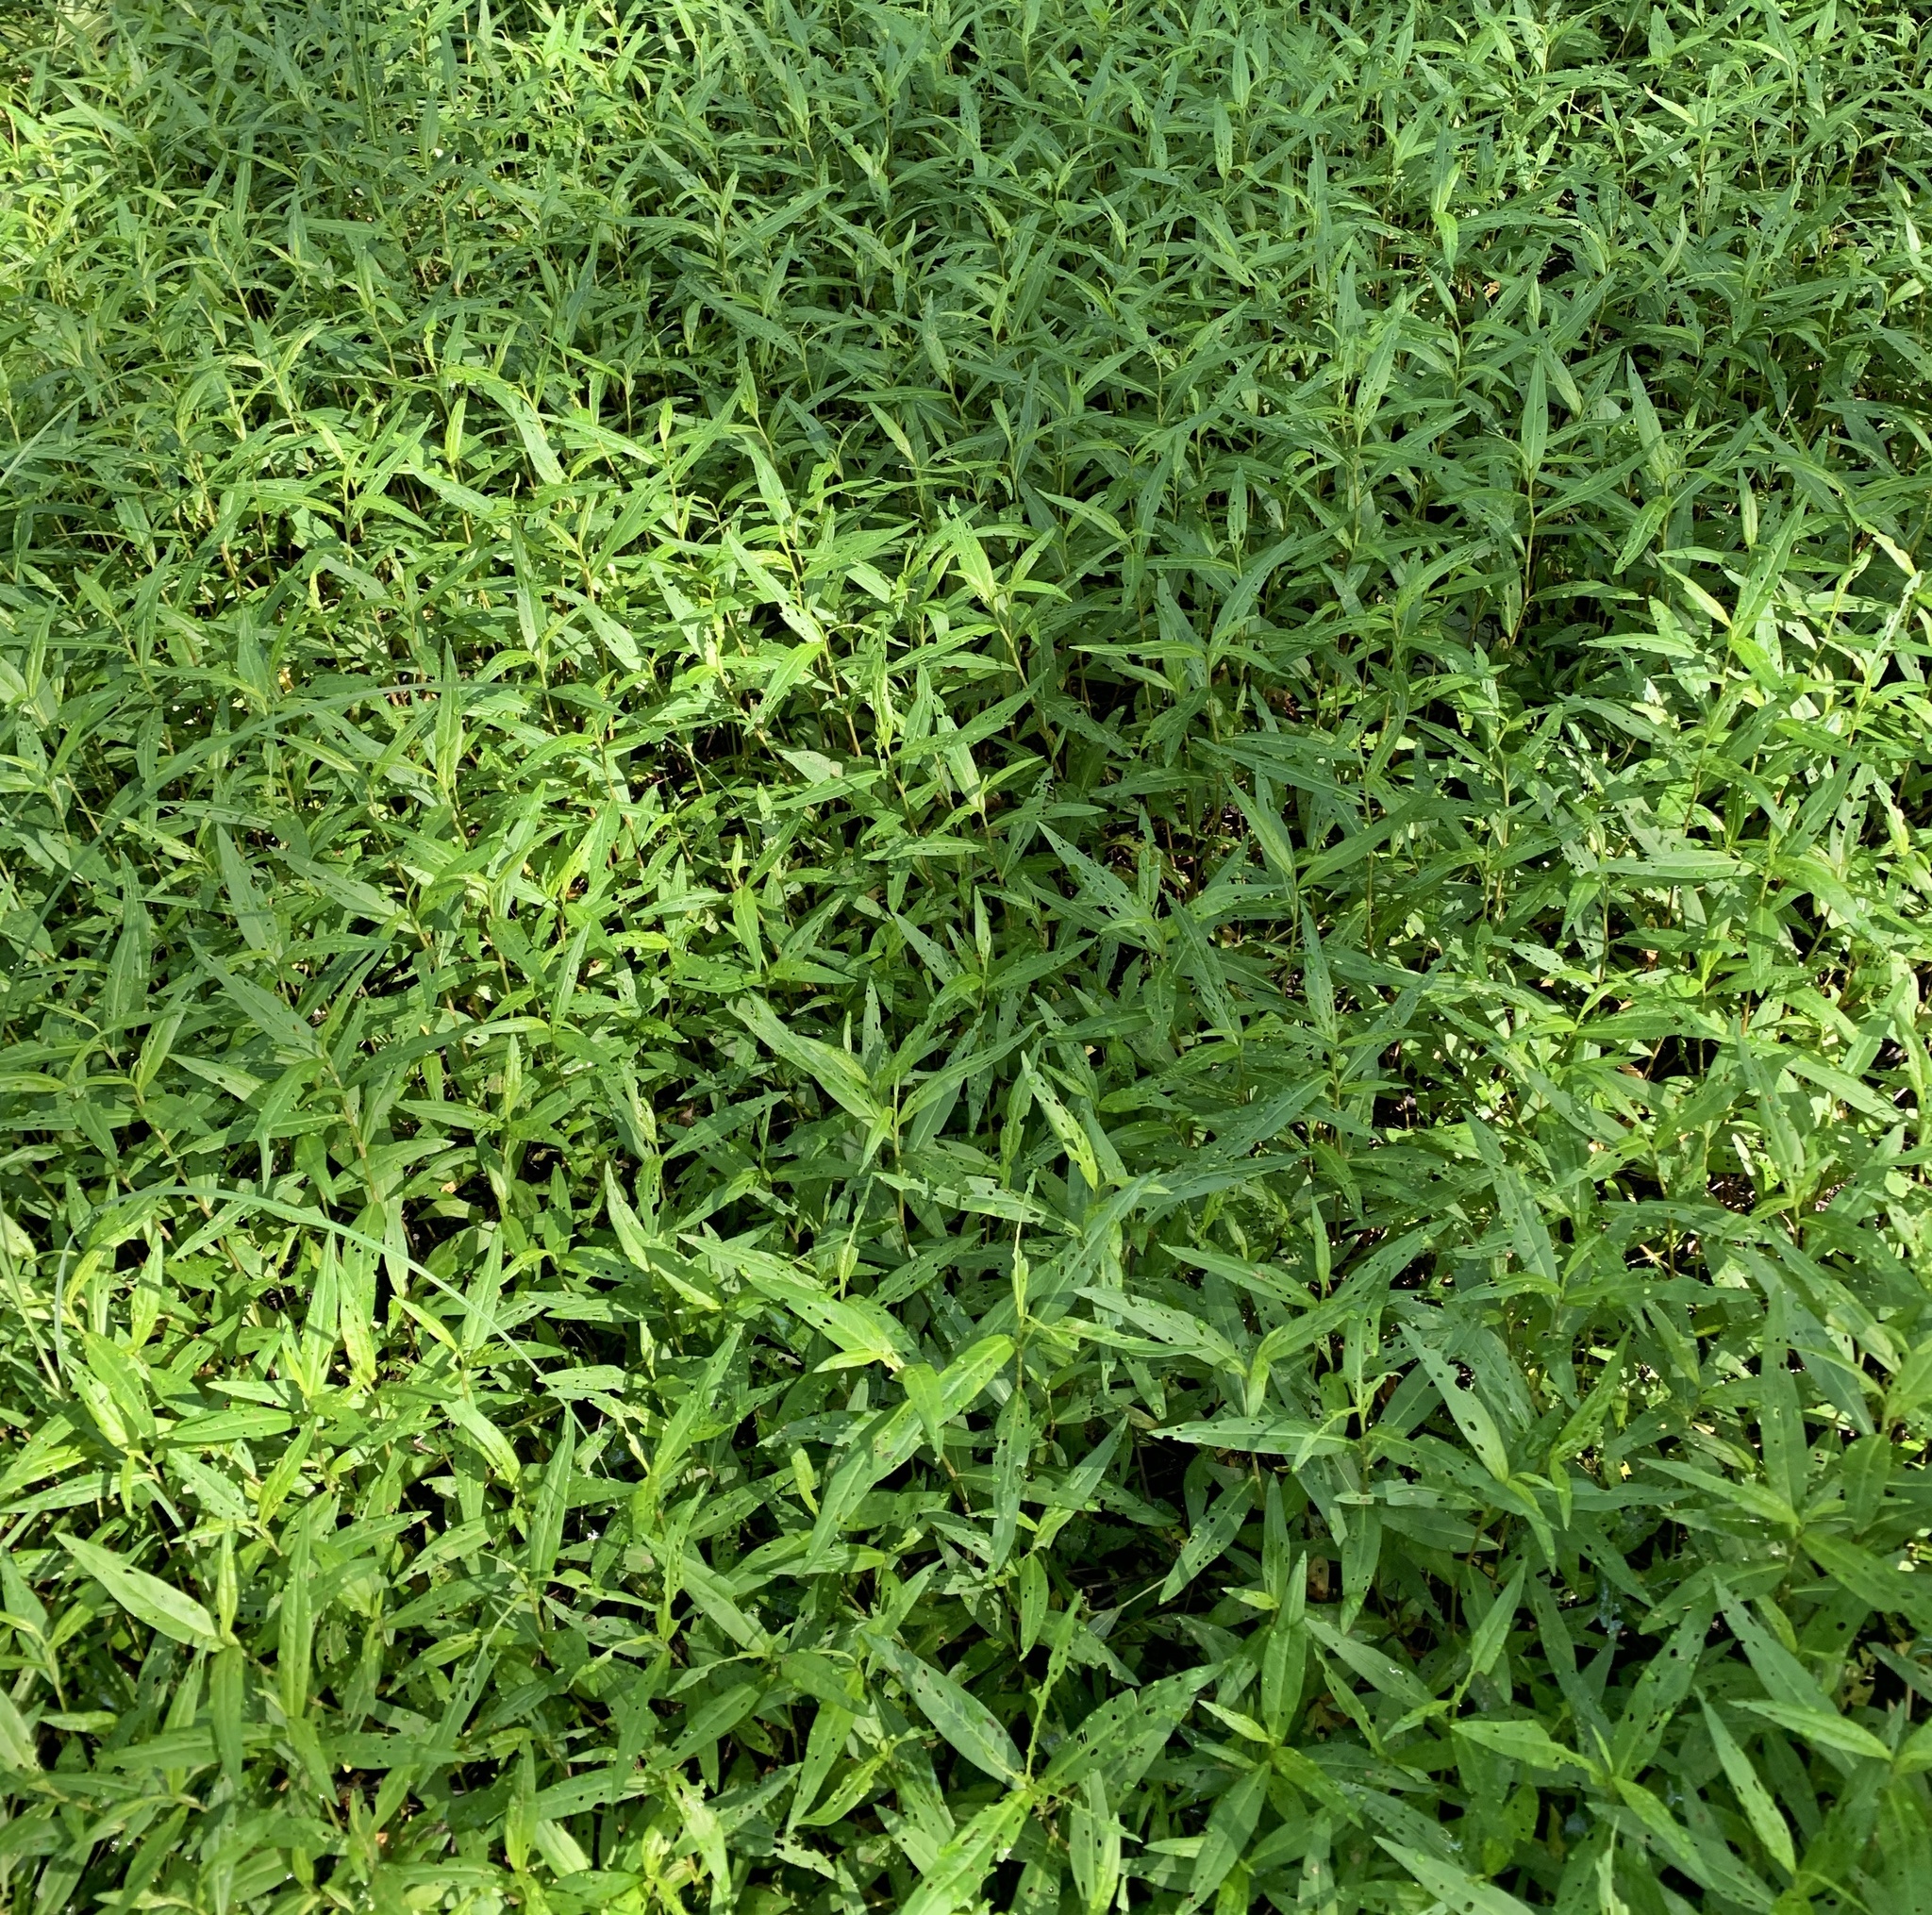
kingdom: Plantae
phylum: Tracheophyta
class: Magnoliopsida
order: Caryophyllales
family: Polygonaceae
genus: Persicaria
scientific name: Persicaria hydropiperoides
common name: Swamp smartweed
